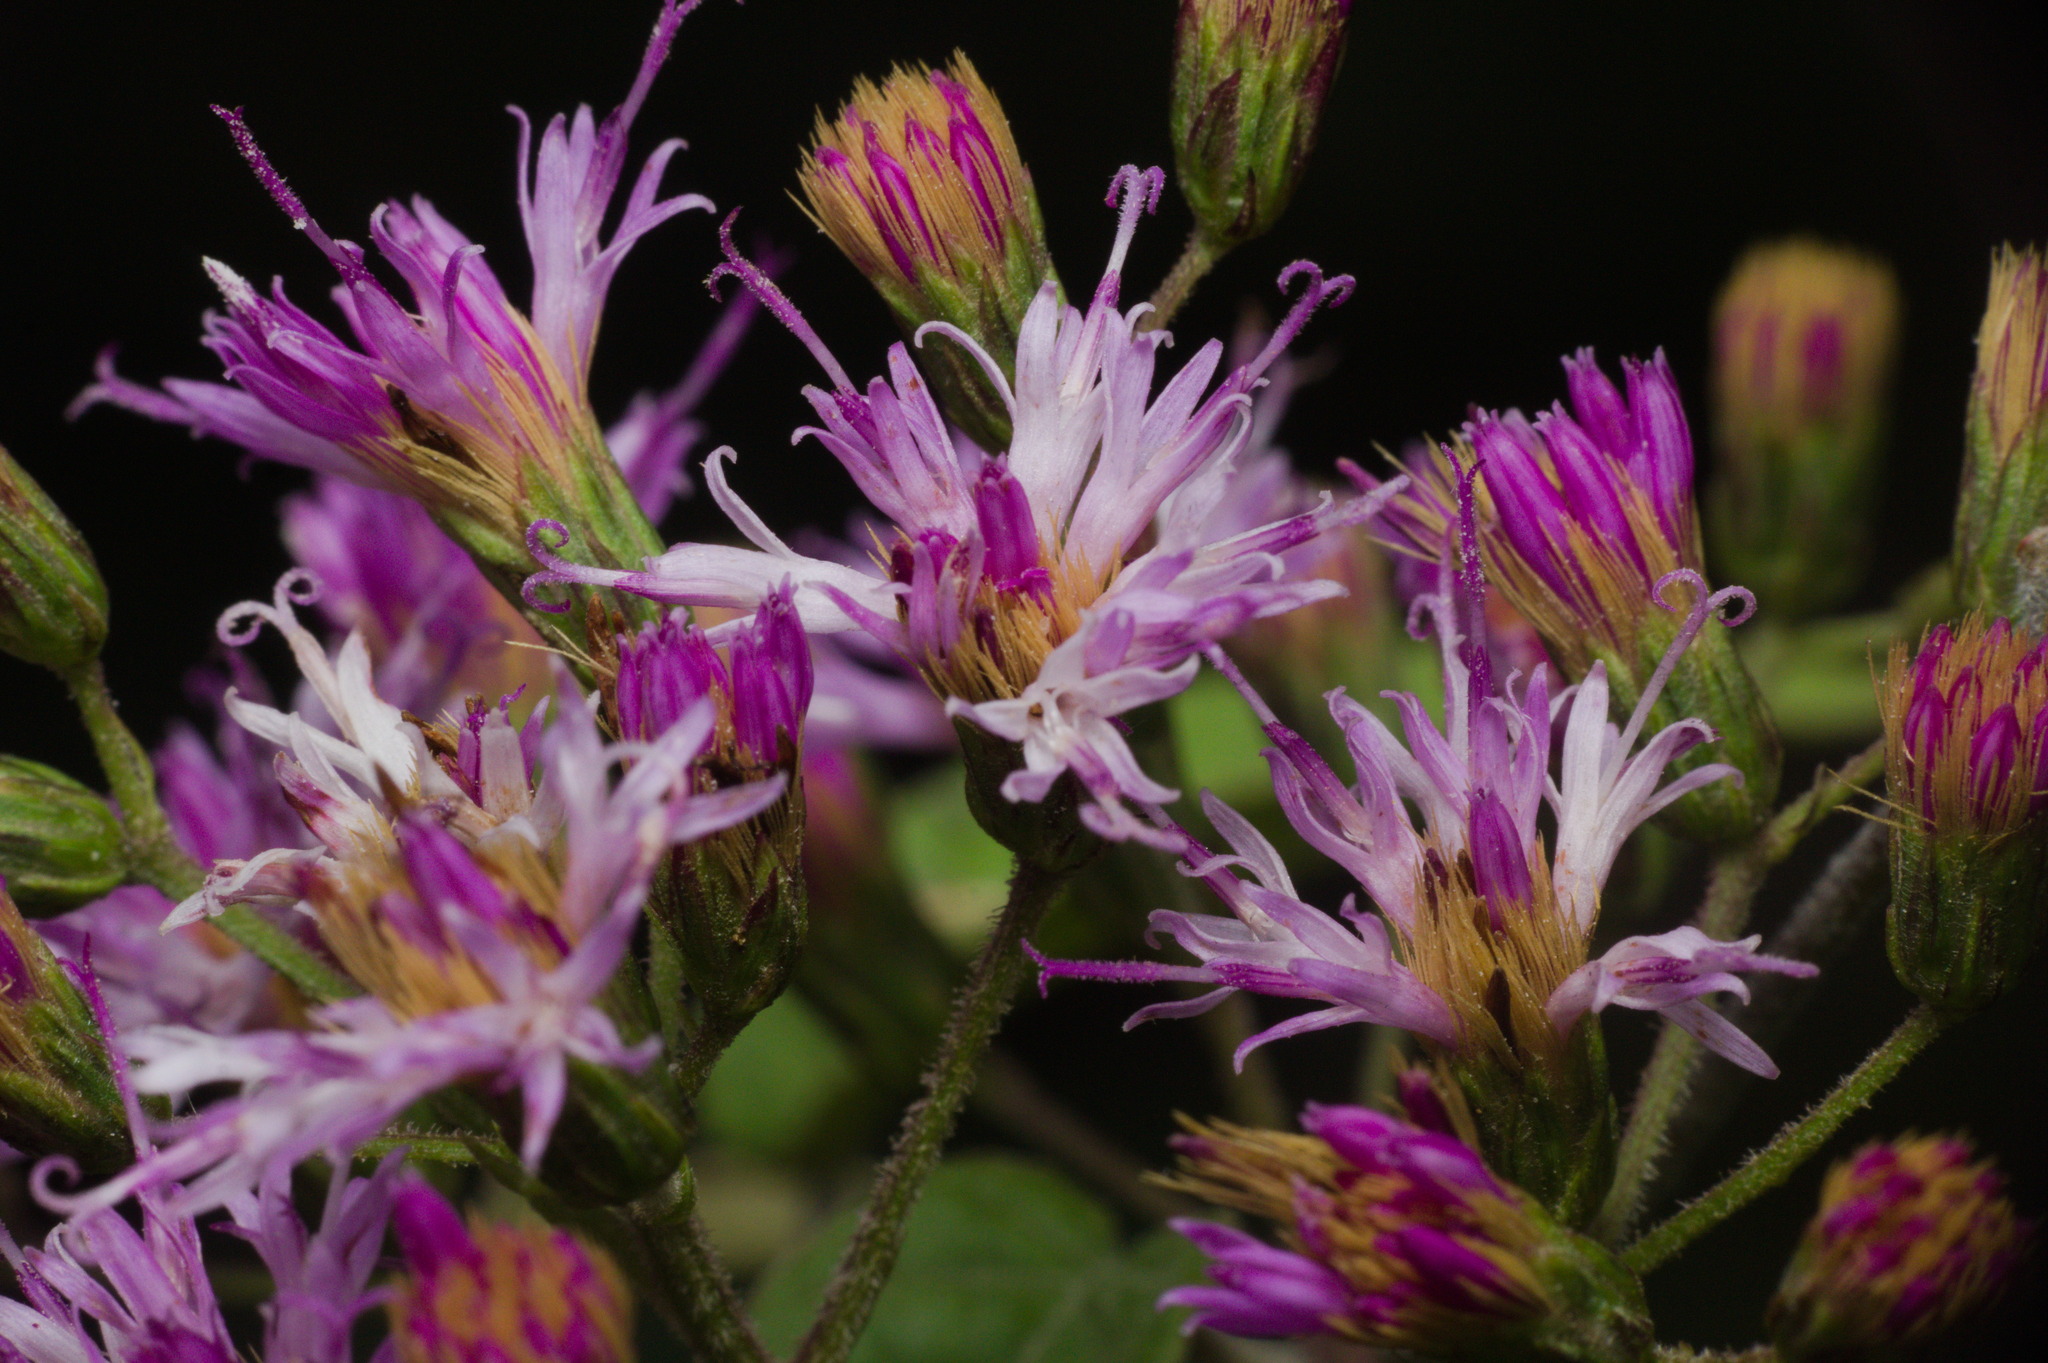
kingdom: Plantae
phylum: Tracheophyta
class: Magnoliopsida
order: Asterales
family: Asteraceae
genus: Vernonanthura
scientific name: Vernonanthura tweedieana
